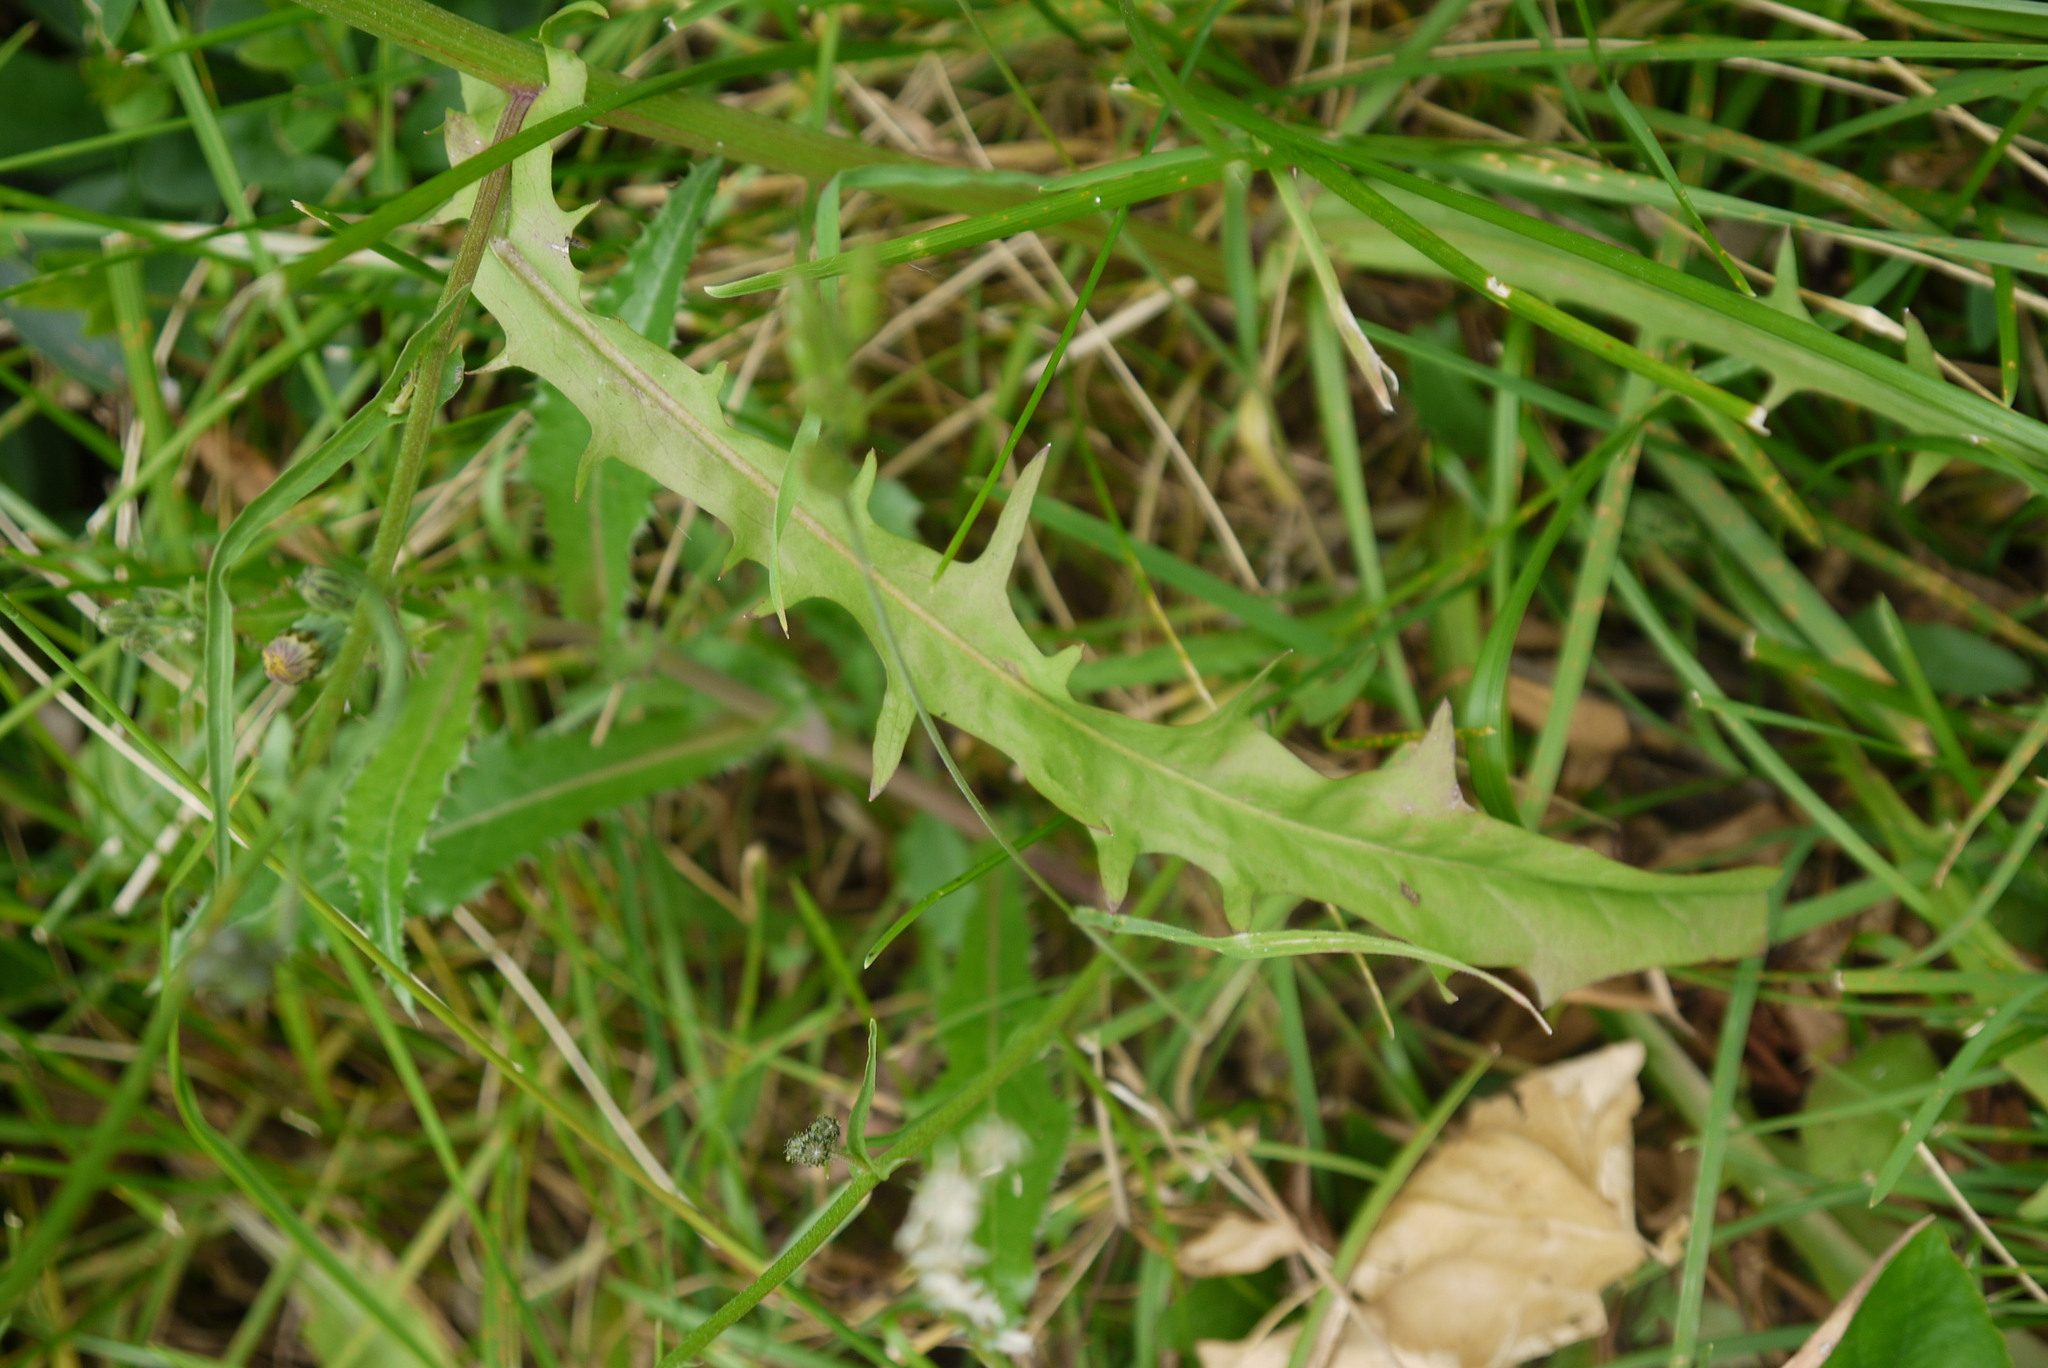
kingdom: Plantae
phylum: Tracheophyta
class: Magnoliopsida
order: Asterales
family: Asteraceae
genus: Crepis
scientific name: Crepis capillaris
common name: Smooth hawksbeard
